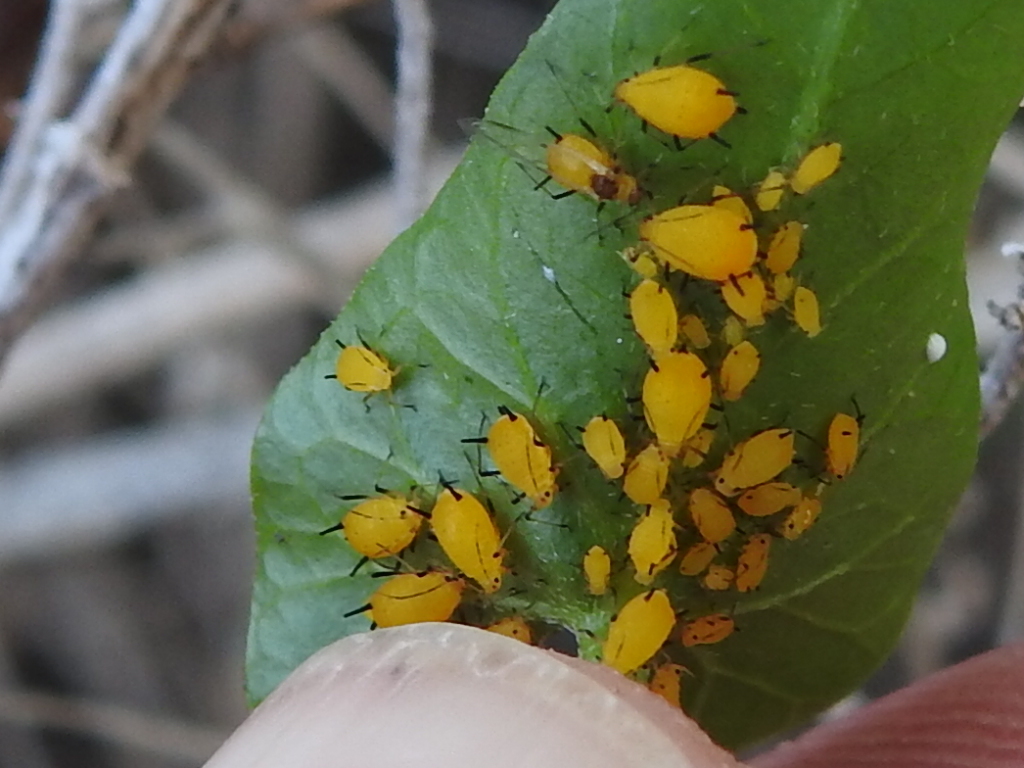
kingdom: Animalia
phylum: Arthropoda
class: Insecta
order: Hemiptera
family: Aphididae
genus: Aphis
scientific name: Aphis nerii
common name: Oleander aphid
